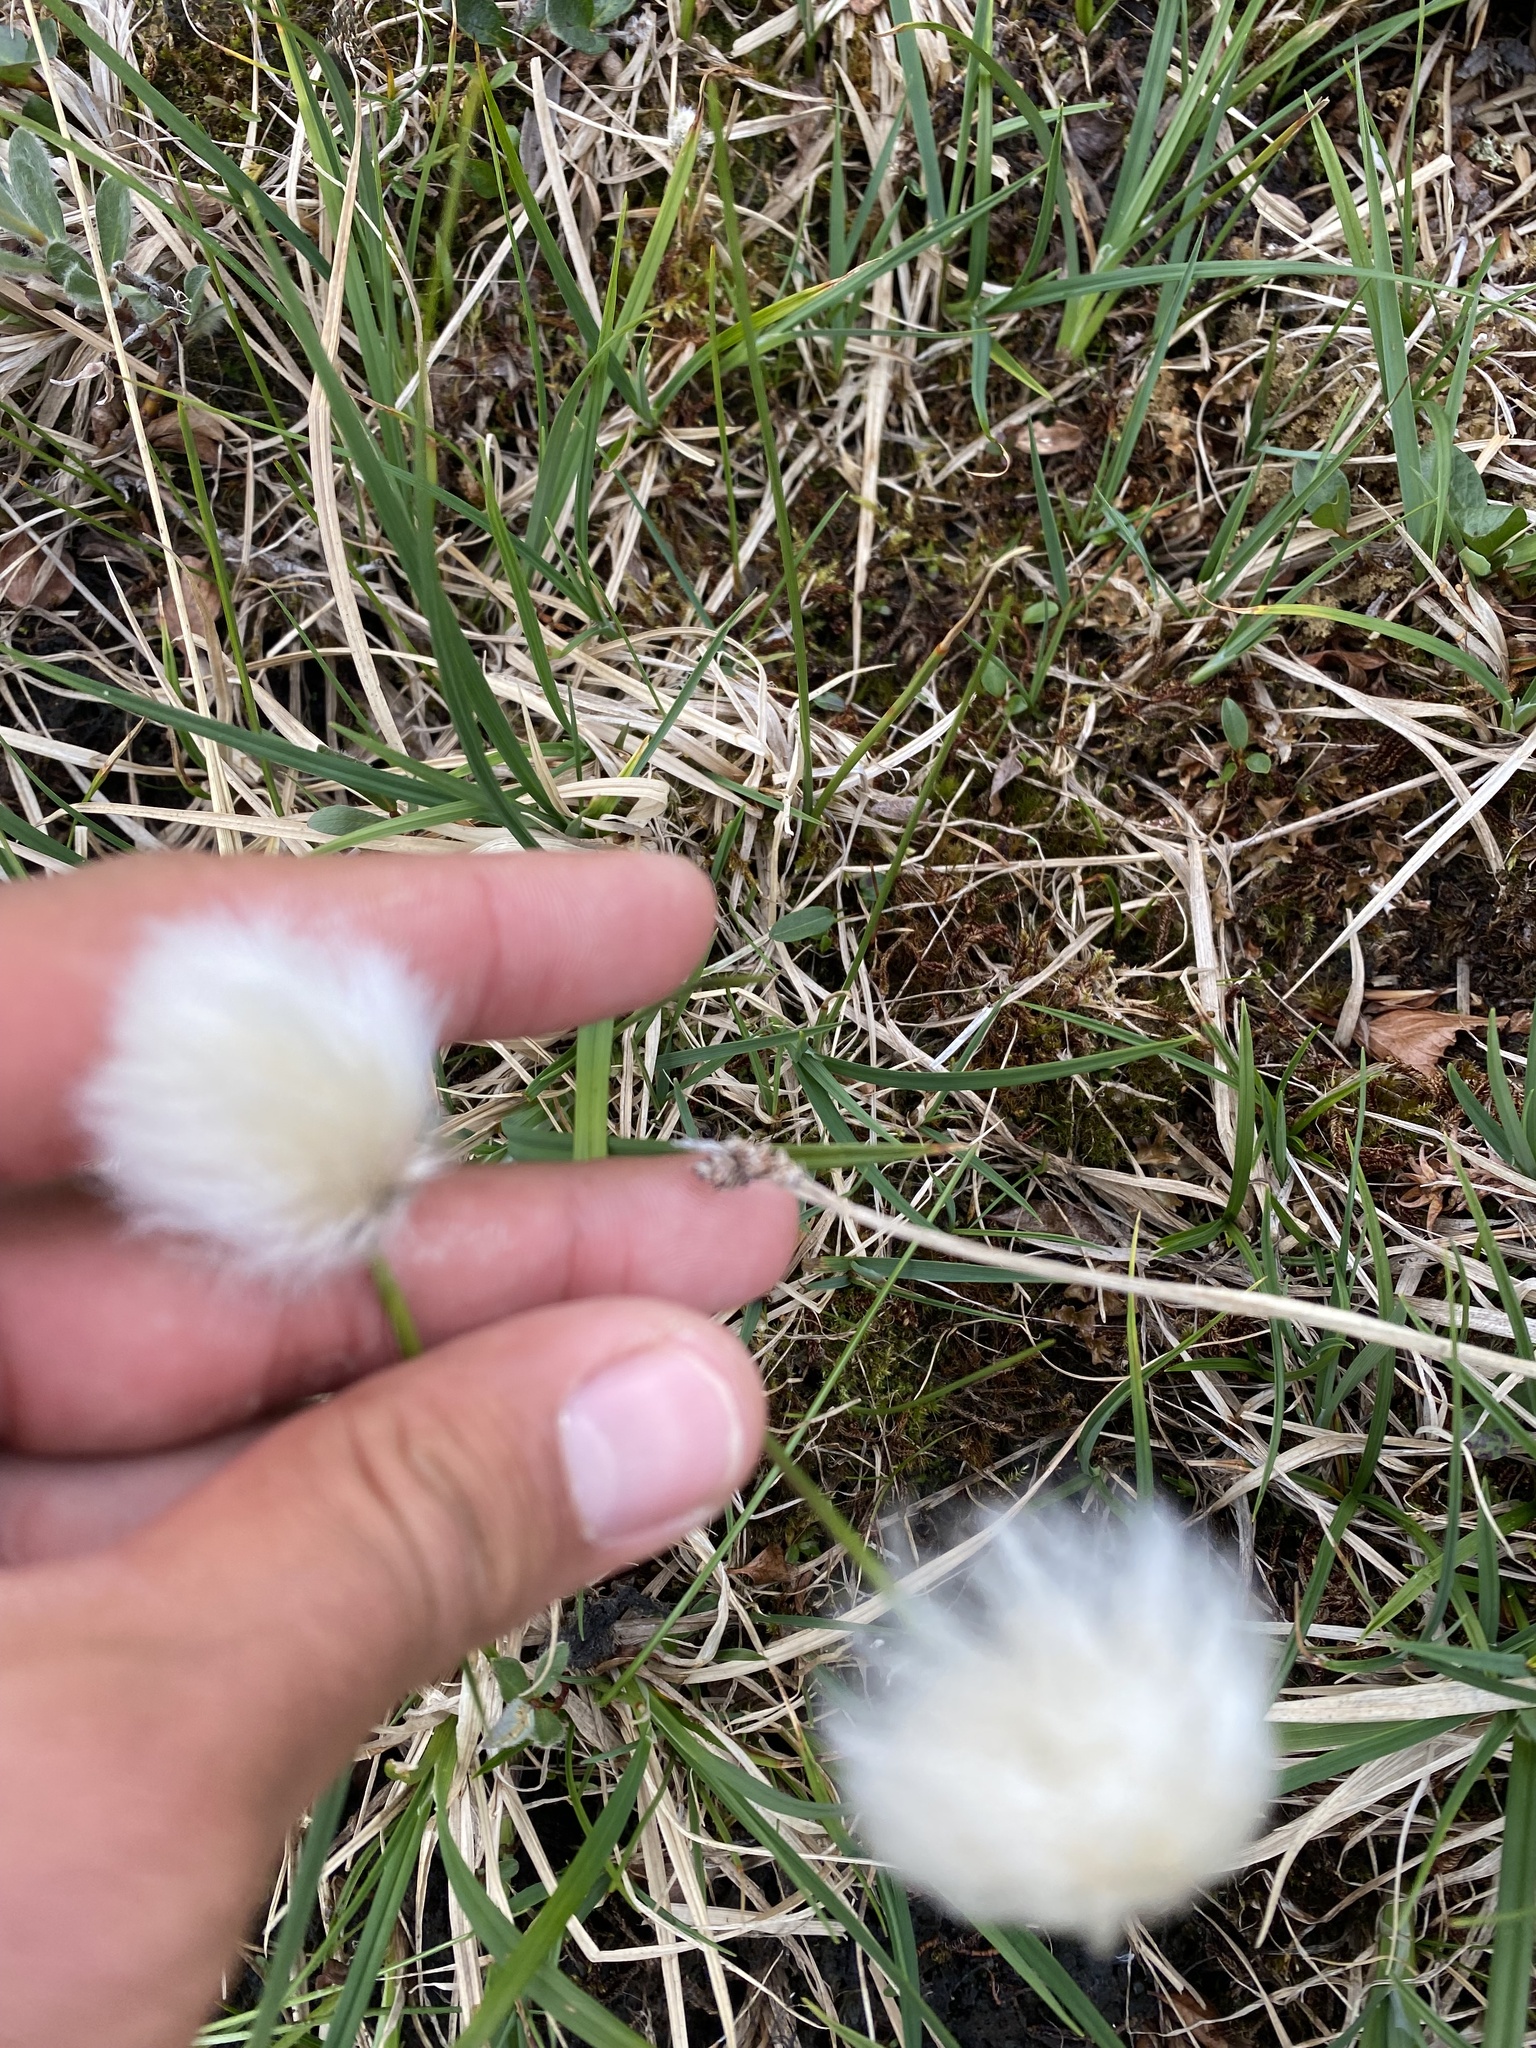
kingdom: Plantae
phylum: Tracheophyta
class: Liliopsida
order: Poales
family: Cyperaceae
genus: Eriophorum
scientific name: Eriophorum vaginatum
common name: Hare's-tail cottongrass
